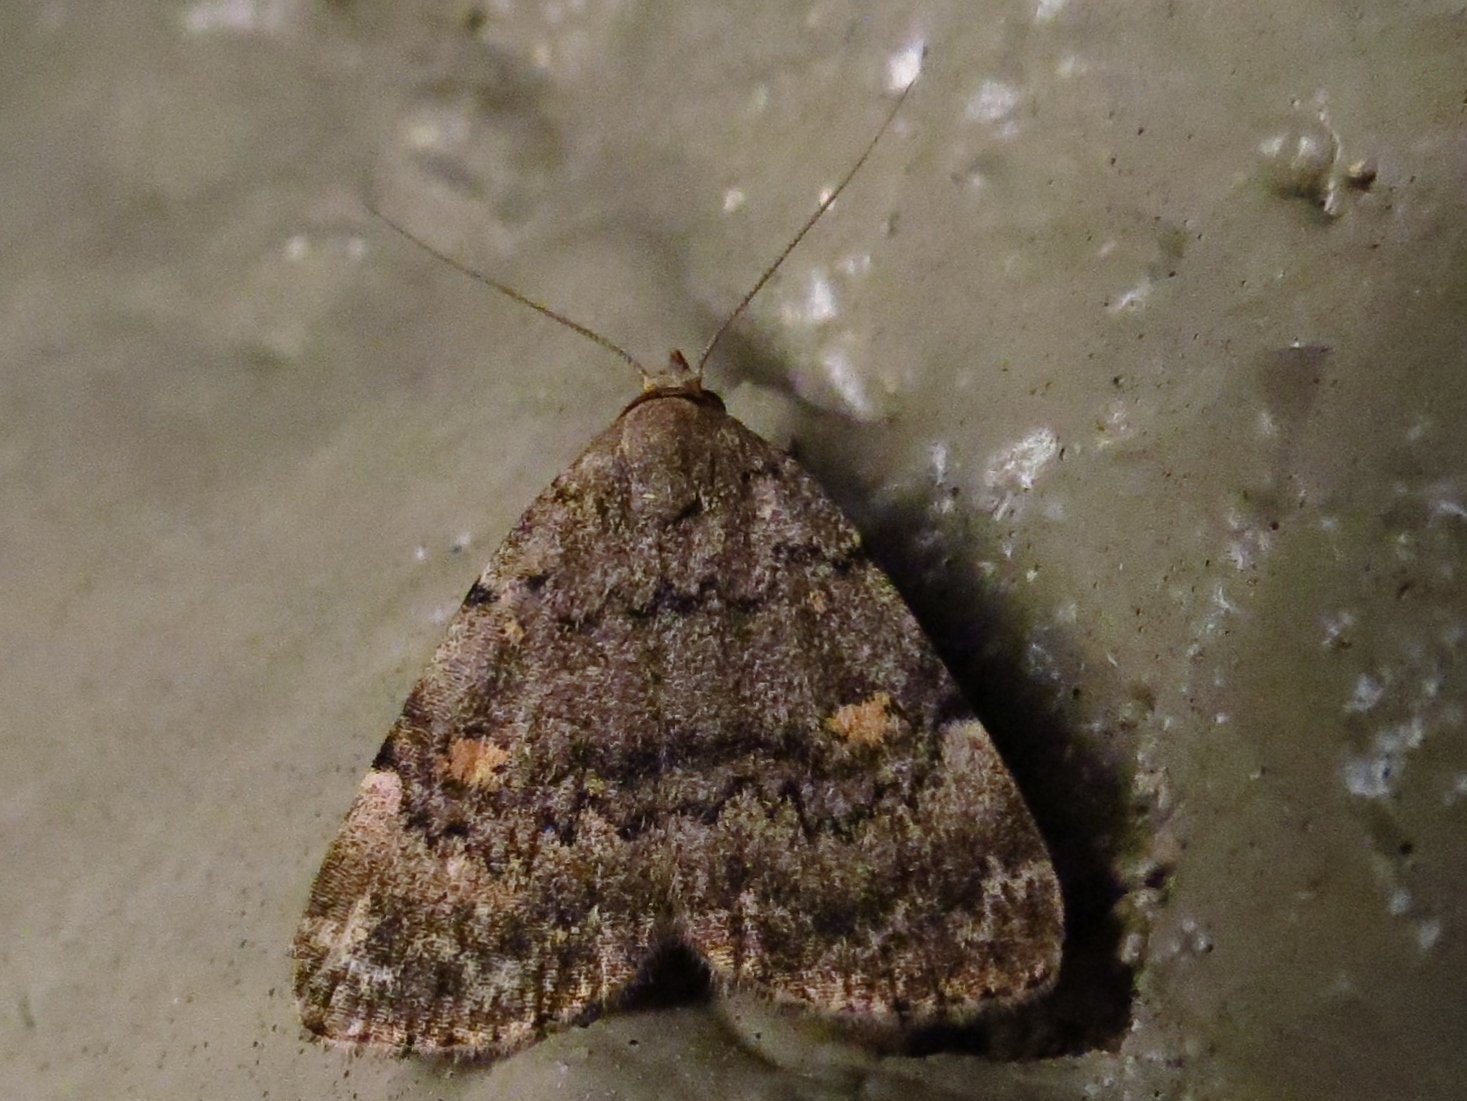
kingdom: Animalia
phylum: Arthropoda
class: Insecta
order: Lepidoptera
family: Erebidae
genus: Idia
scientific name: Idia aemula
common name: Common idia moth
